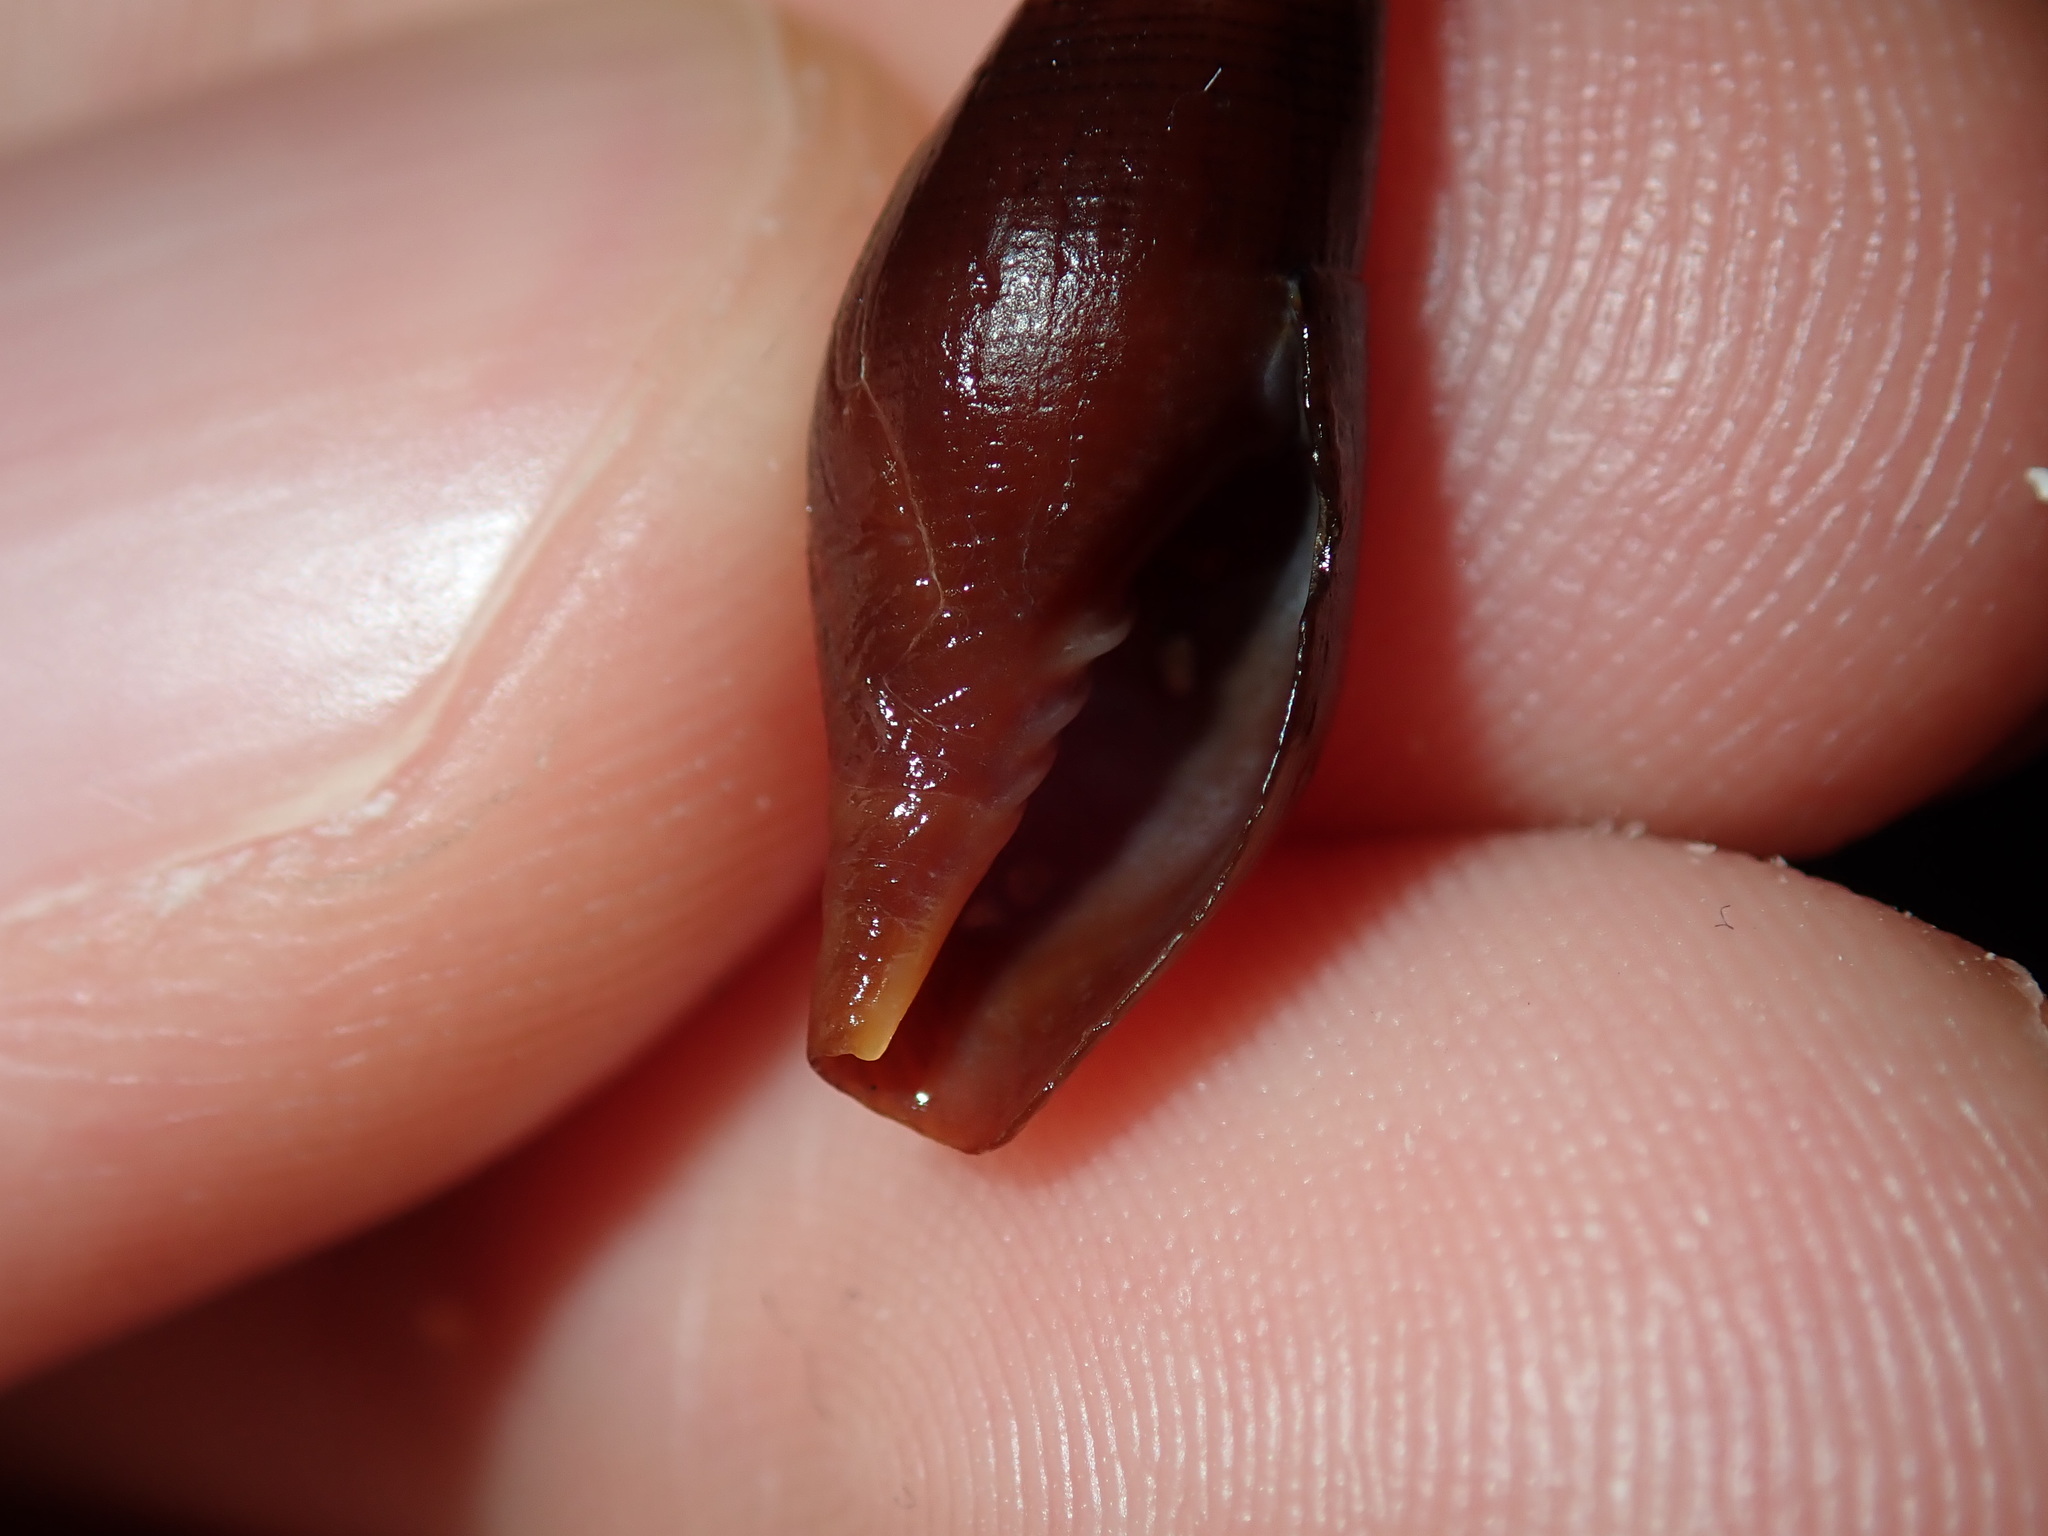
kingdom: Animalia
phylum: Mollusca
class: Gastropoda
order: Neogastropoda
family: Mitridae
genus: Isara
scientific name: Isara carbonaria
